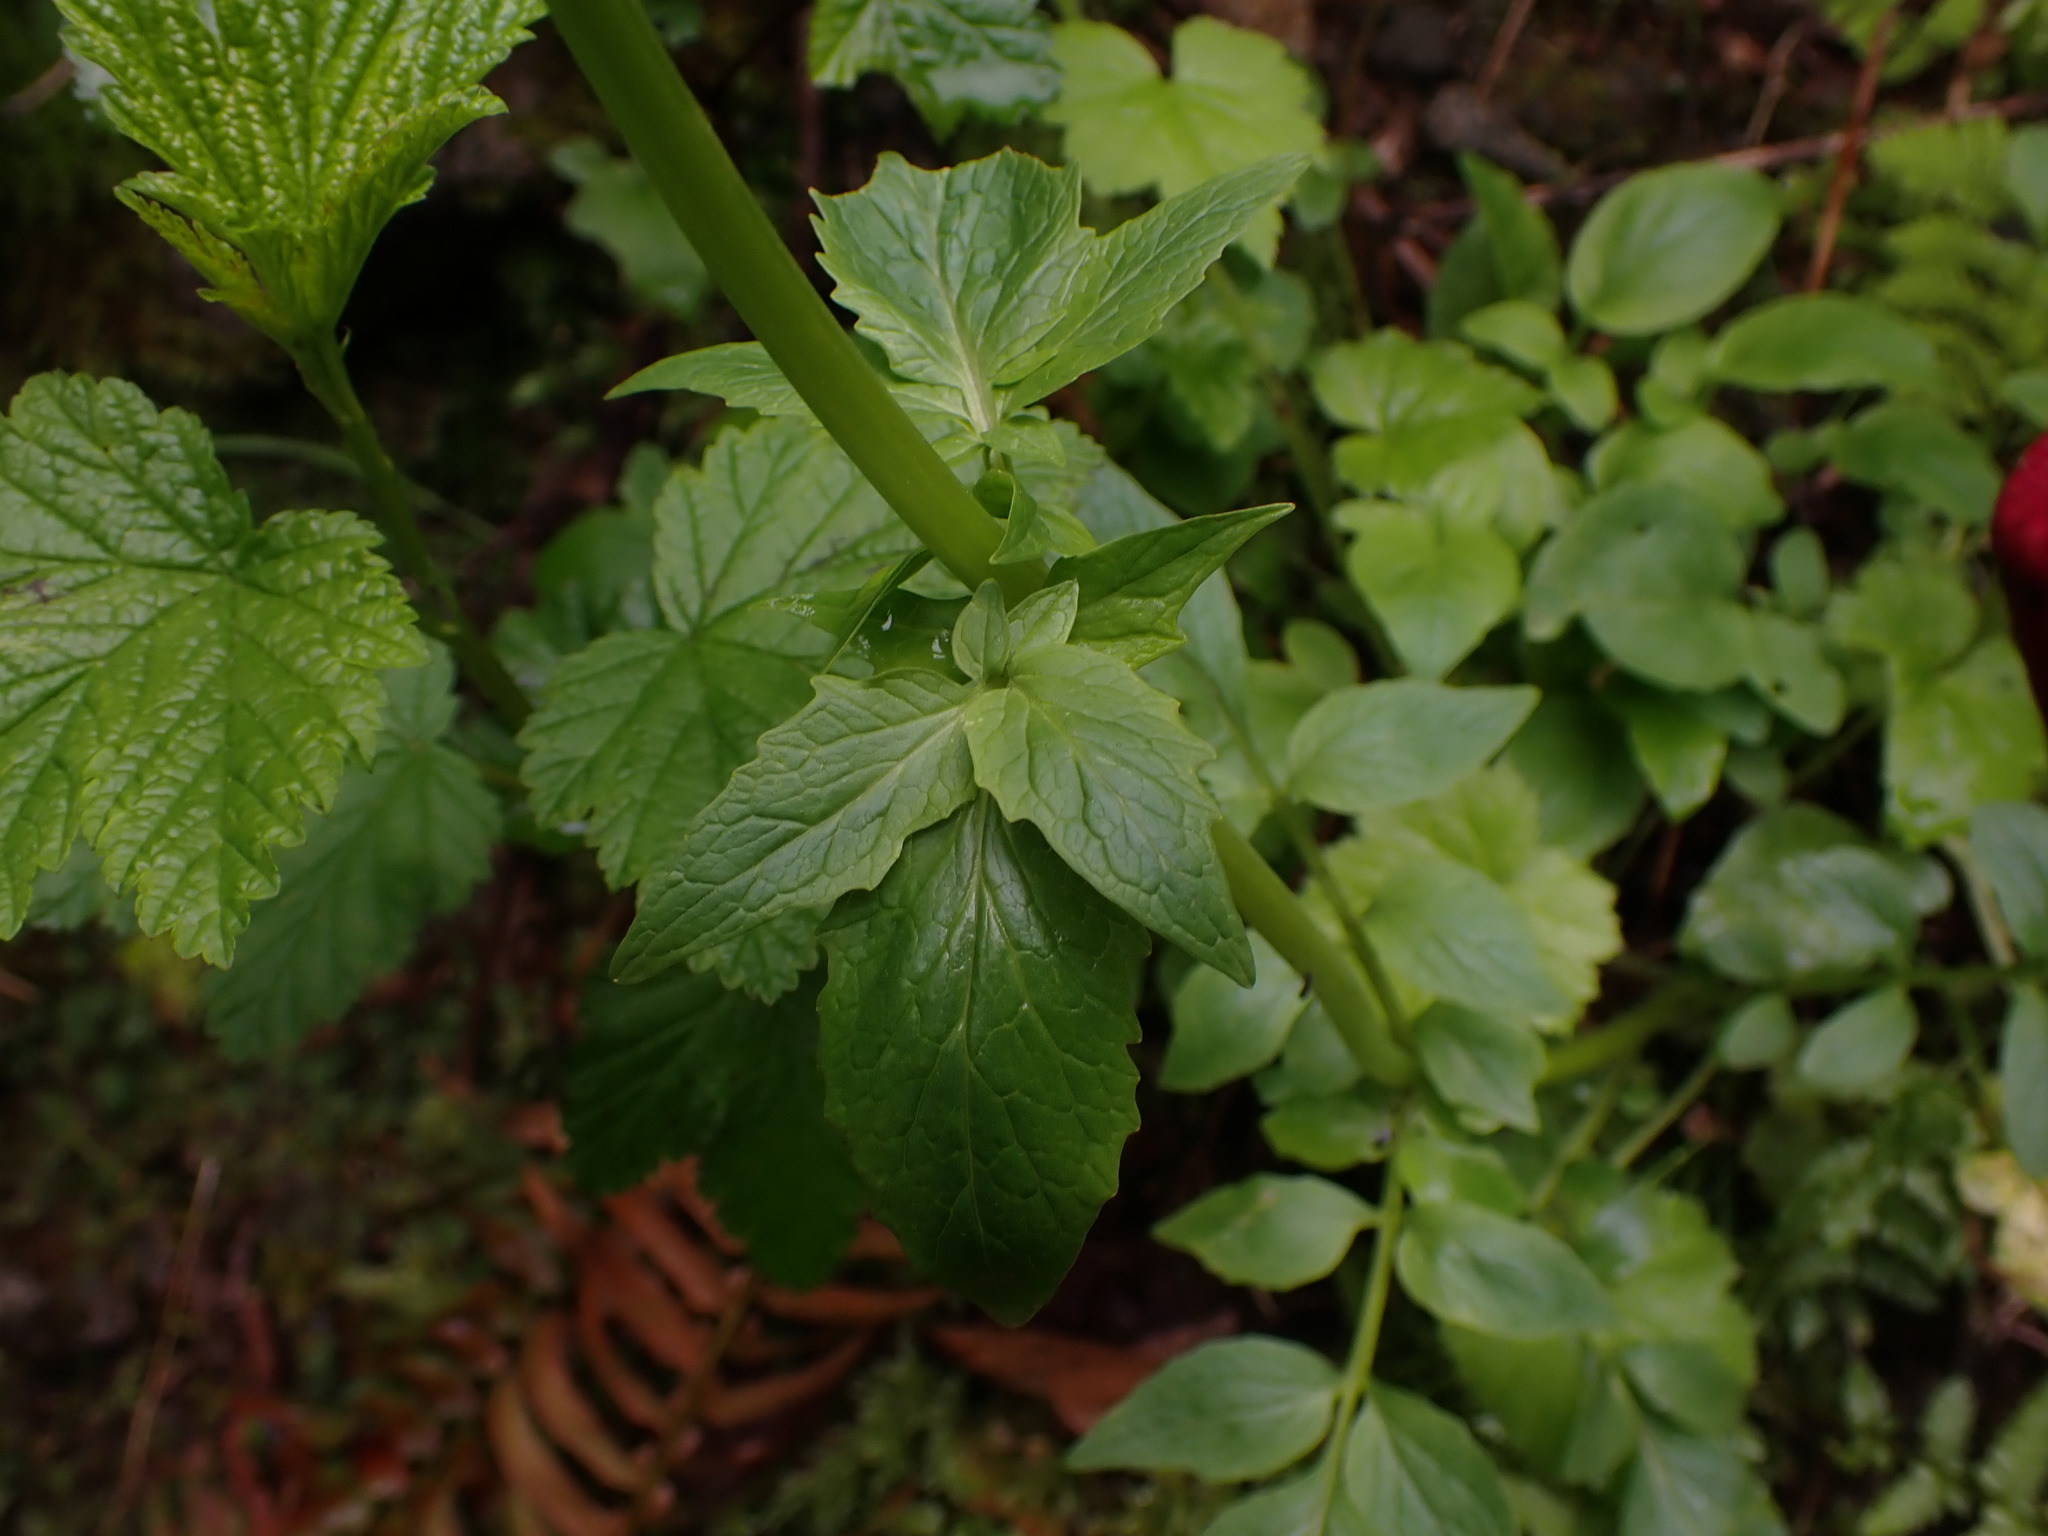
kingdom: Plantae
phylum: Tracheophyta
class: Magnoliopsida
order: Dipsacales
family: Caprifoliaceae
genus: Valeriana
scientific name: Valeriana sitchensis
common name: Pacific valerian
